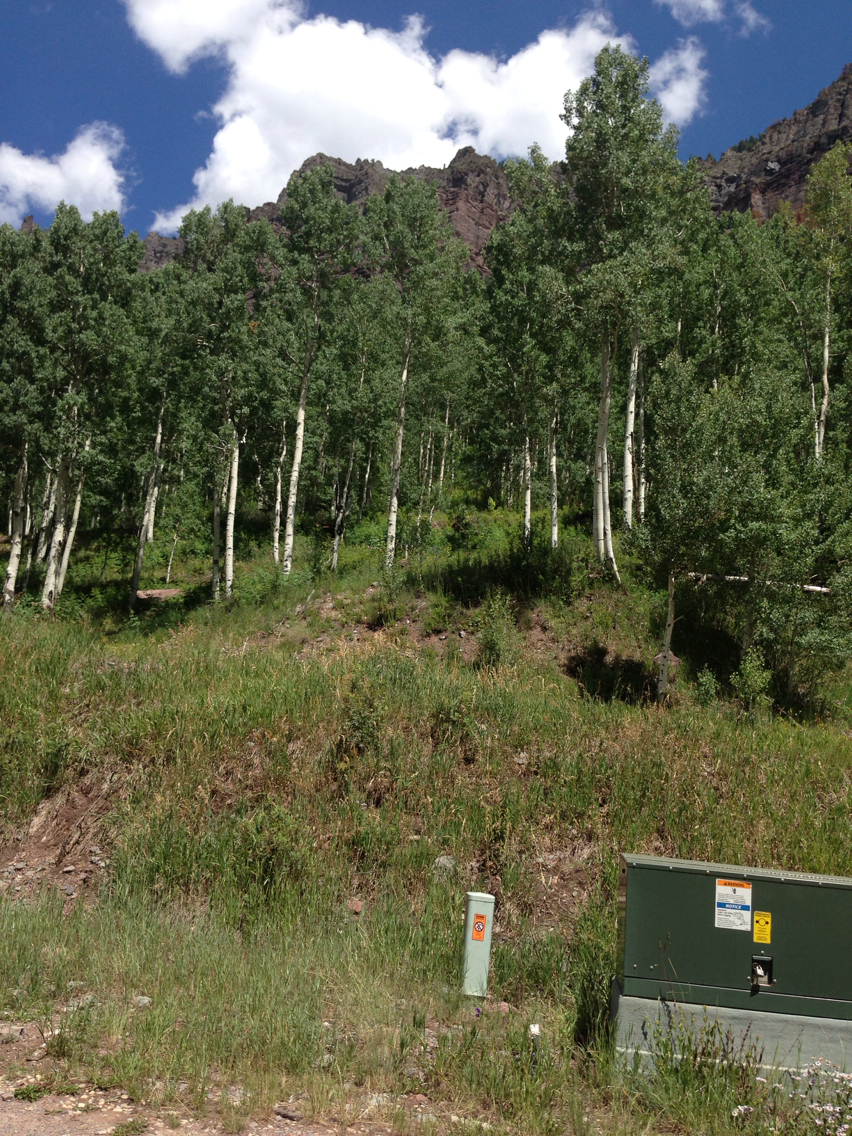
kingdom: Plantae
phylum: Tracheophyta
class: Magnoliopsida
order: Malpighiales
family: Salicaceae
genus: Populus
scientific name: Populus tremuloides
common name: Quaking aspen
